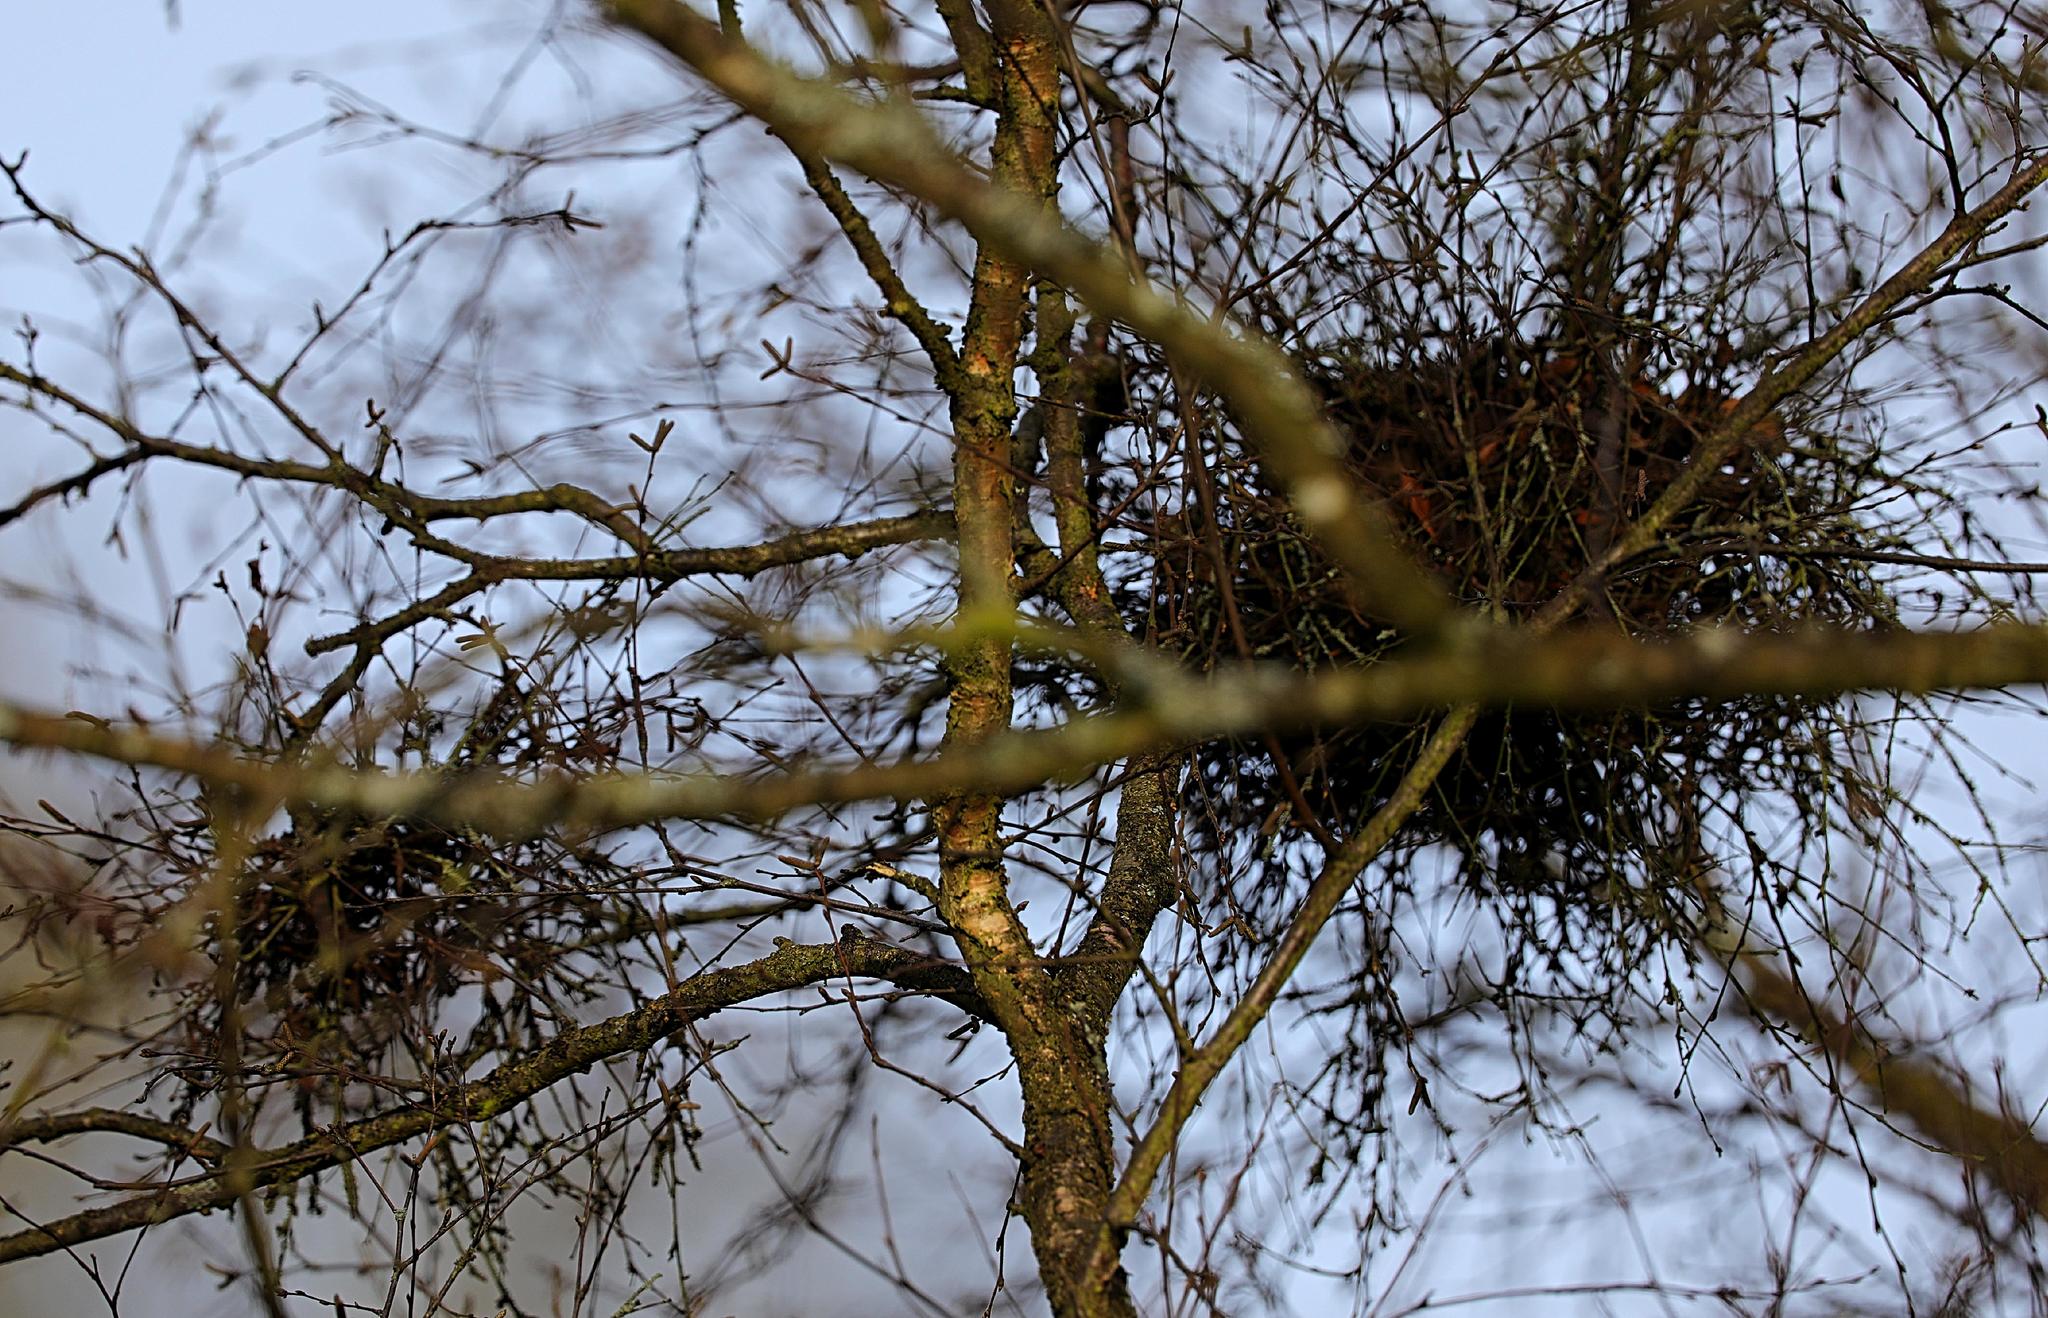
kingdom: Fungi
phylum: Ascomycota
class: Taphrinomycetes
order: Taphrinales
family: Taphrinaceae
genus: Taphrina
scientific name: Taphrina betulina
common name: Birch besom
